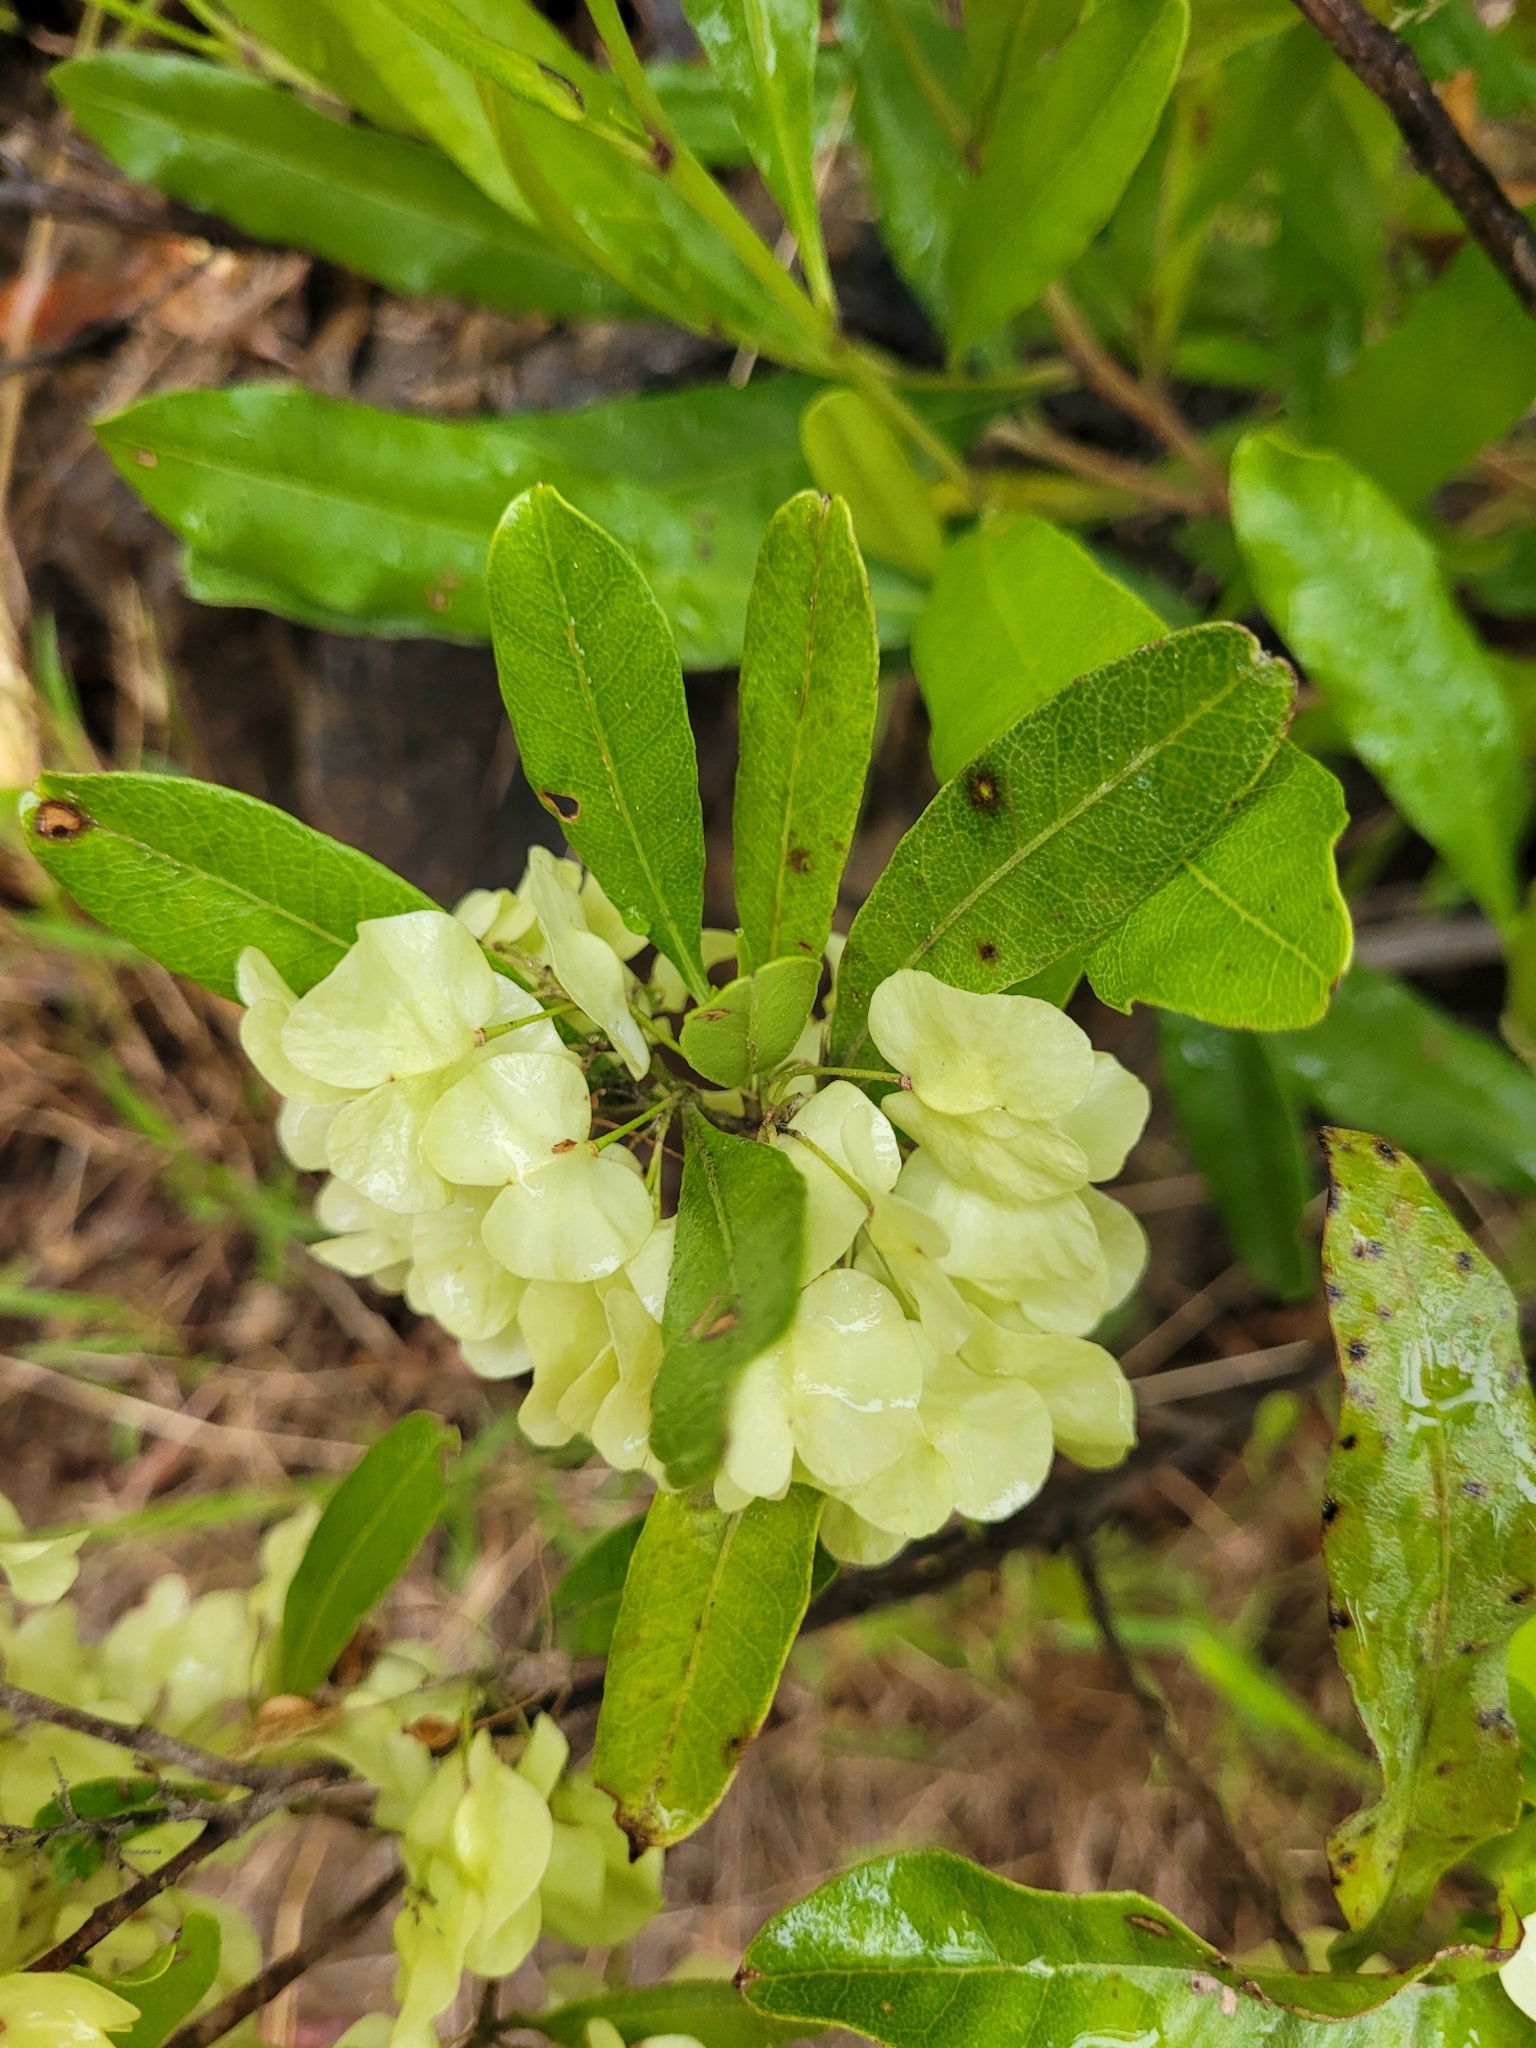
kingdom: Plantae
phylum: Tracheophyta
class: Magnoliopsida
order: Sapindales
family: Sapindaceae
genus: Dodonaea
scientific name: Dodonaea viscosa
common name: Hopbush
